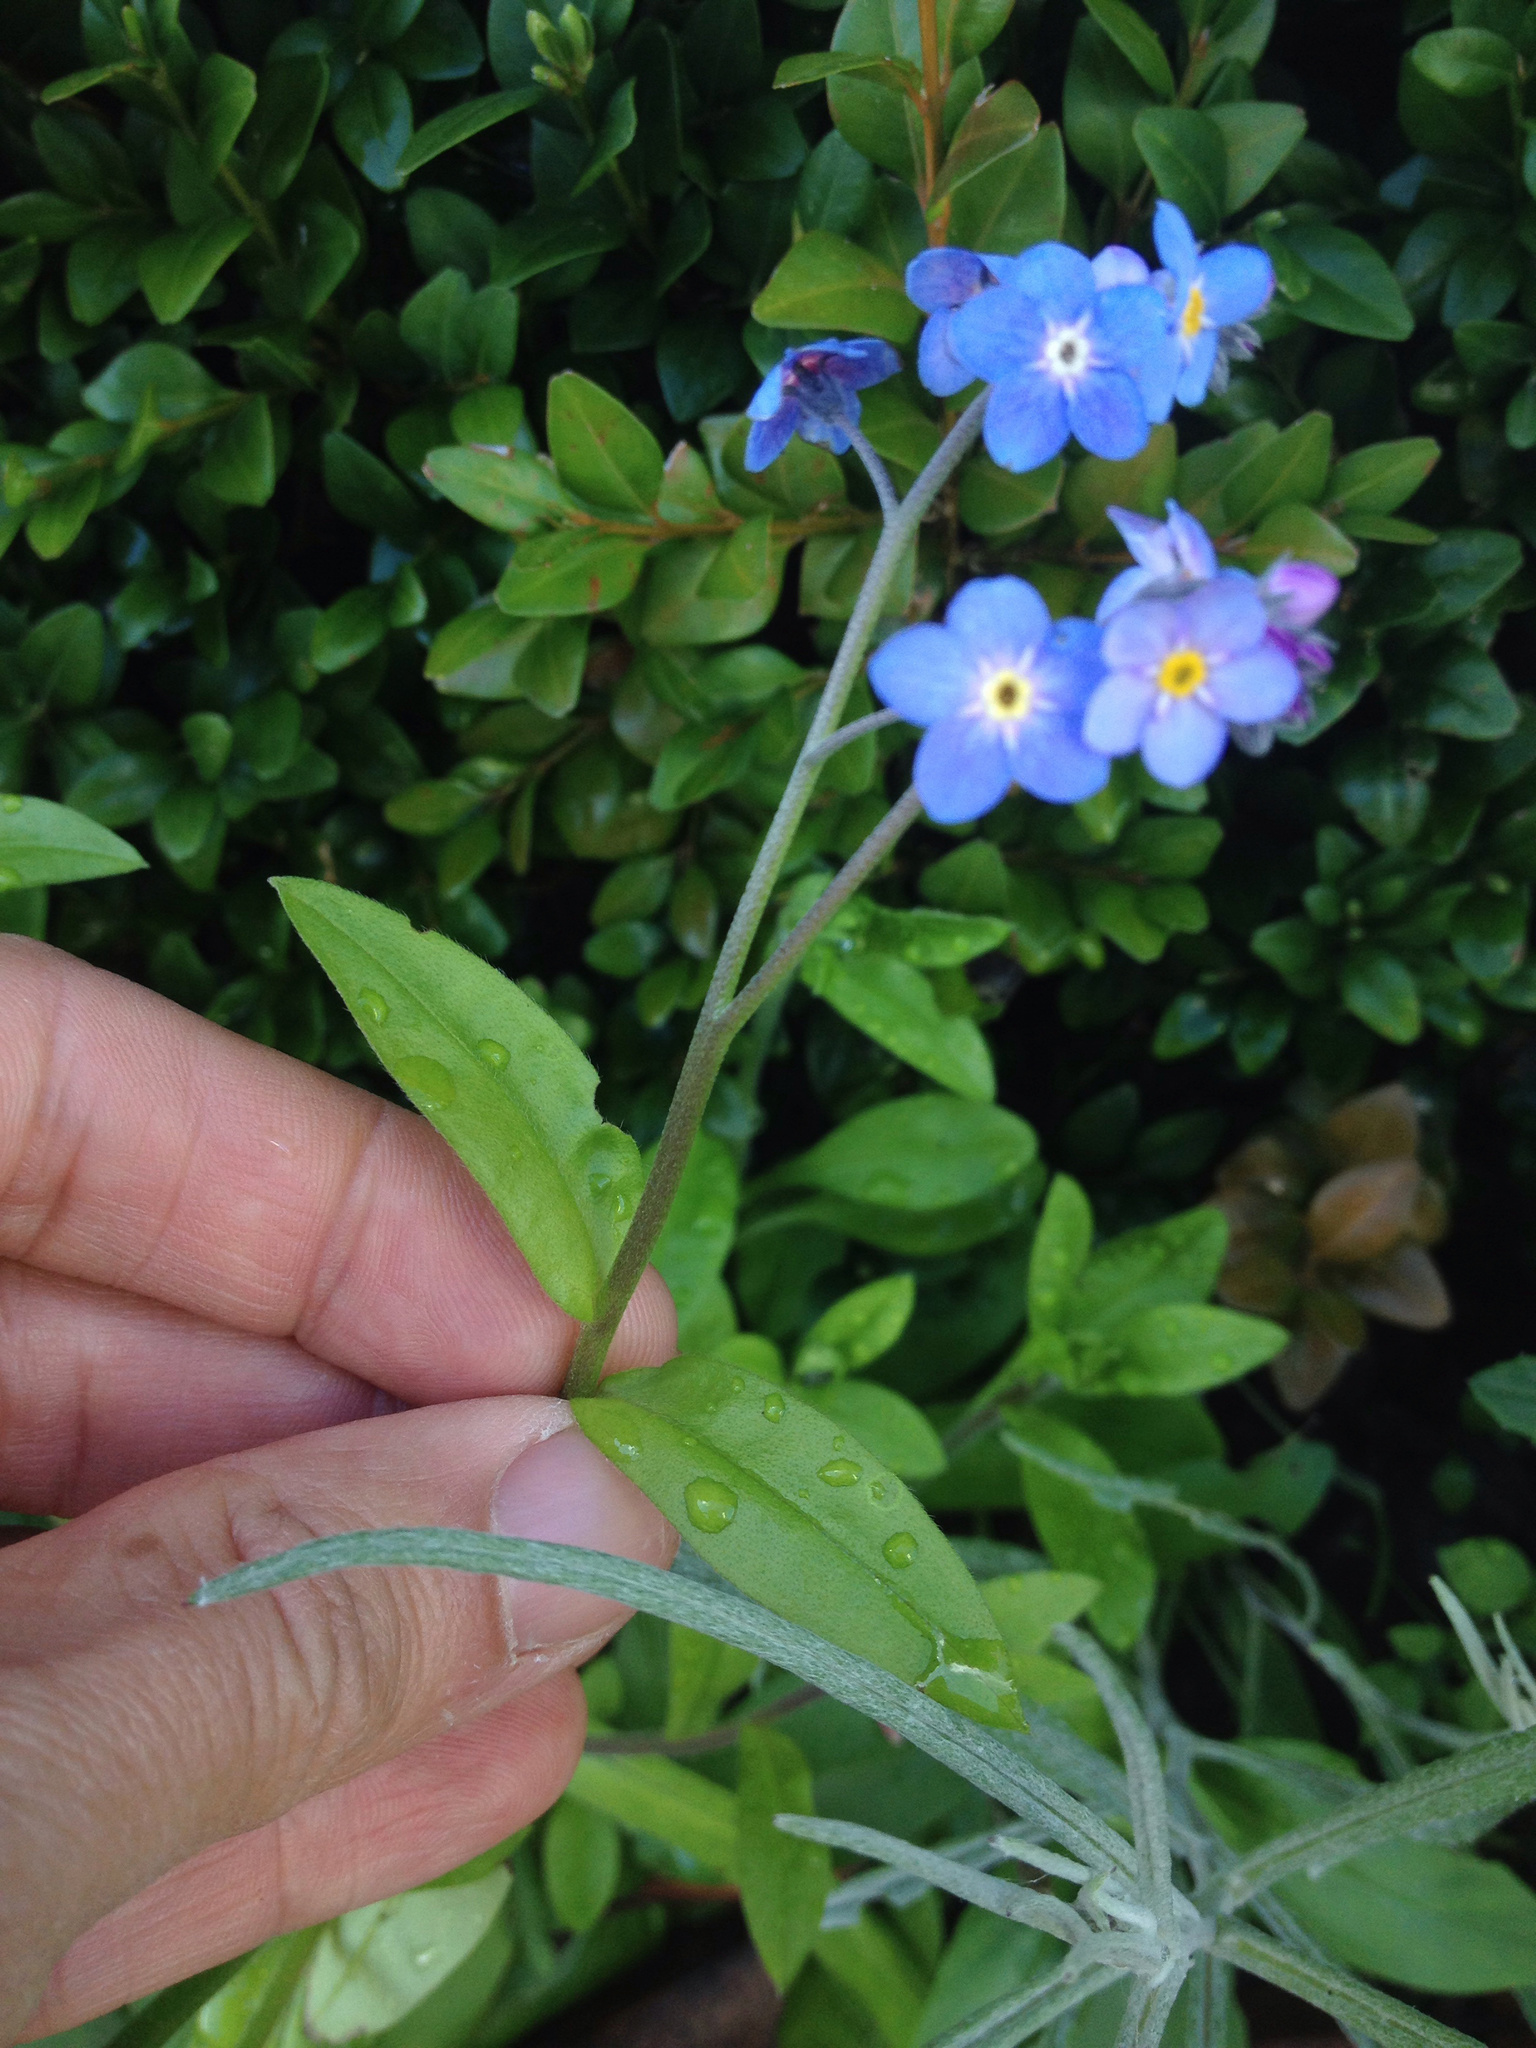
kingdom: Plantae
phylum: Tracheophyta
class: Magnoliopsida
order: Boraginales
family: Boraginaceae
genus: Myosotis
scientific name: Myosotis sylvatica
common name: Wood forget-me-not
